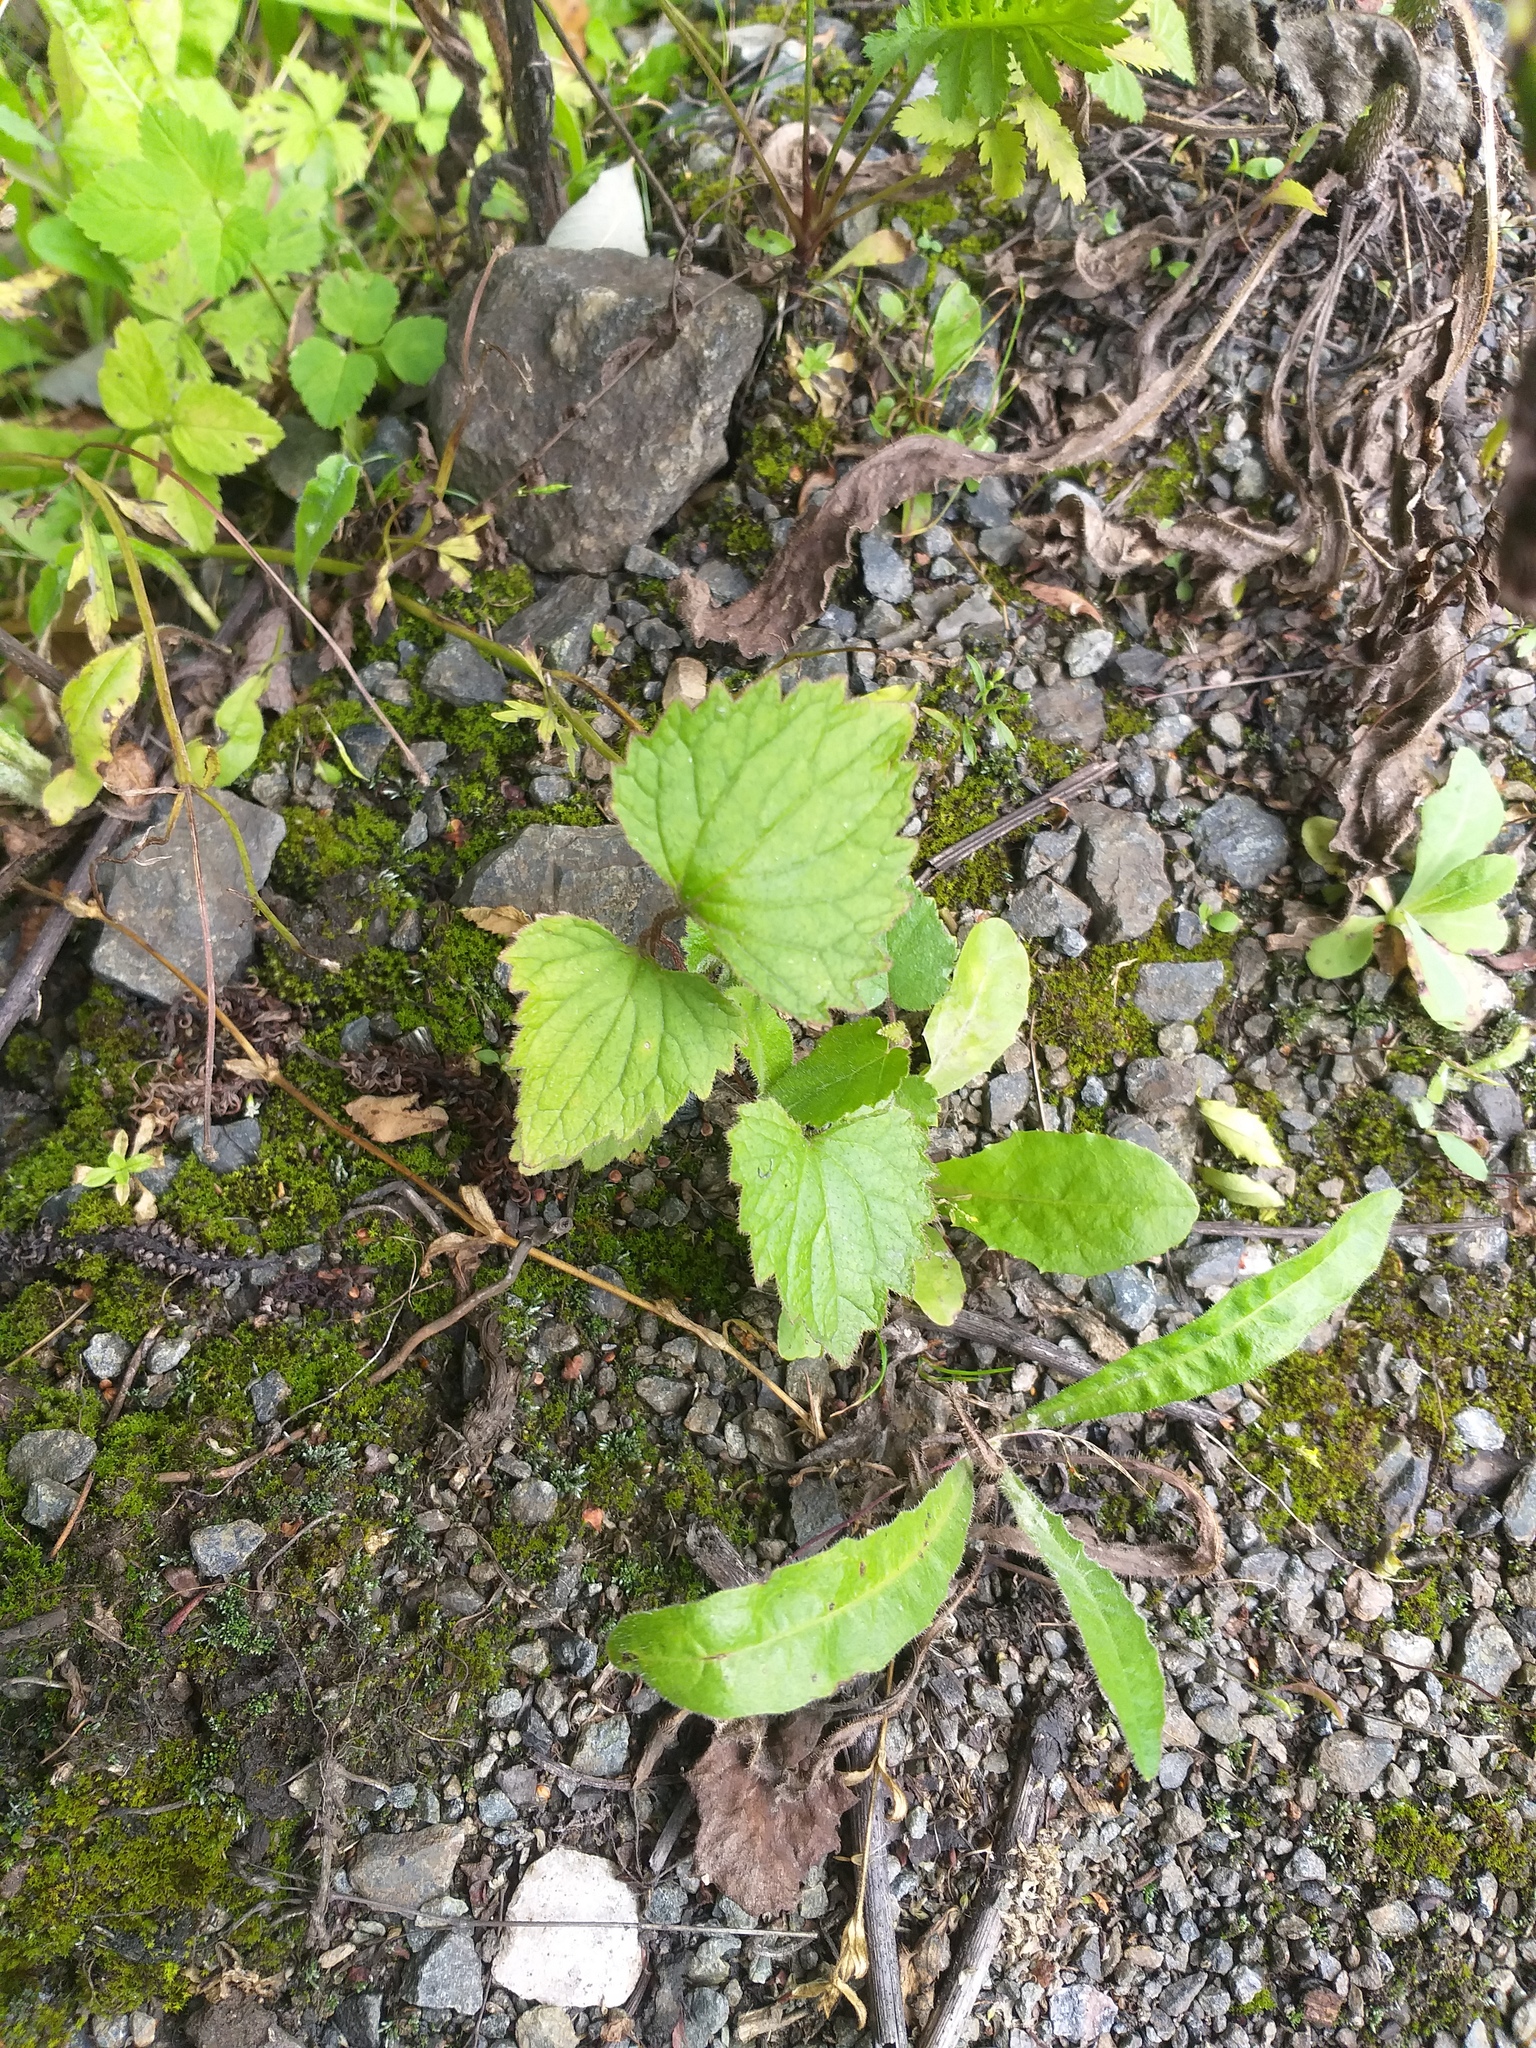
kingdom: Plantae
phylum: Tracheophyta
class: Magnoliopsida
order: Asterales
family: Campanulaceae
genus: Campanula
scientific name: Campanula trachelium
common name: Nettle-leaved bellflower
